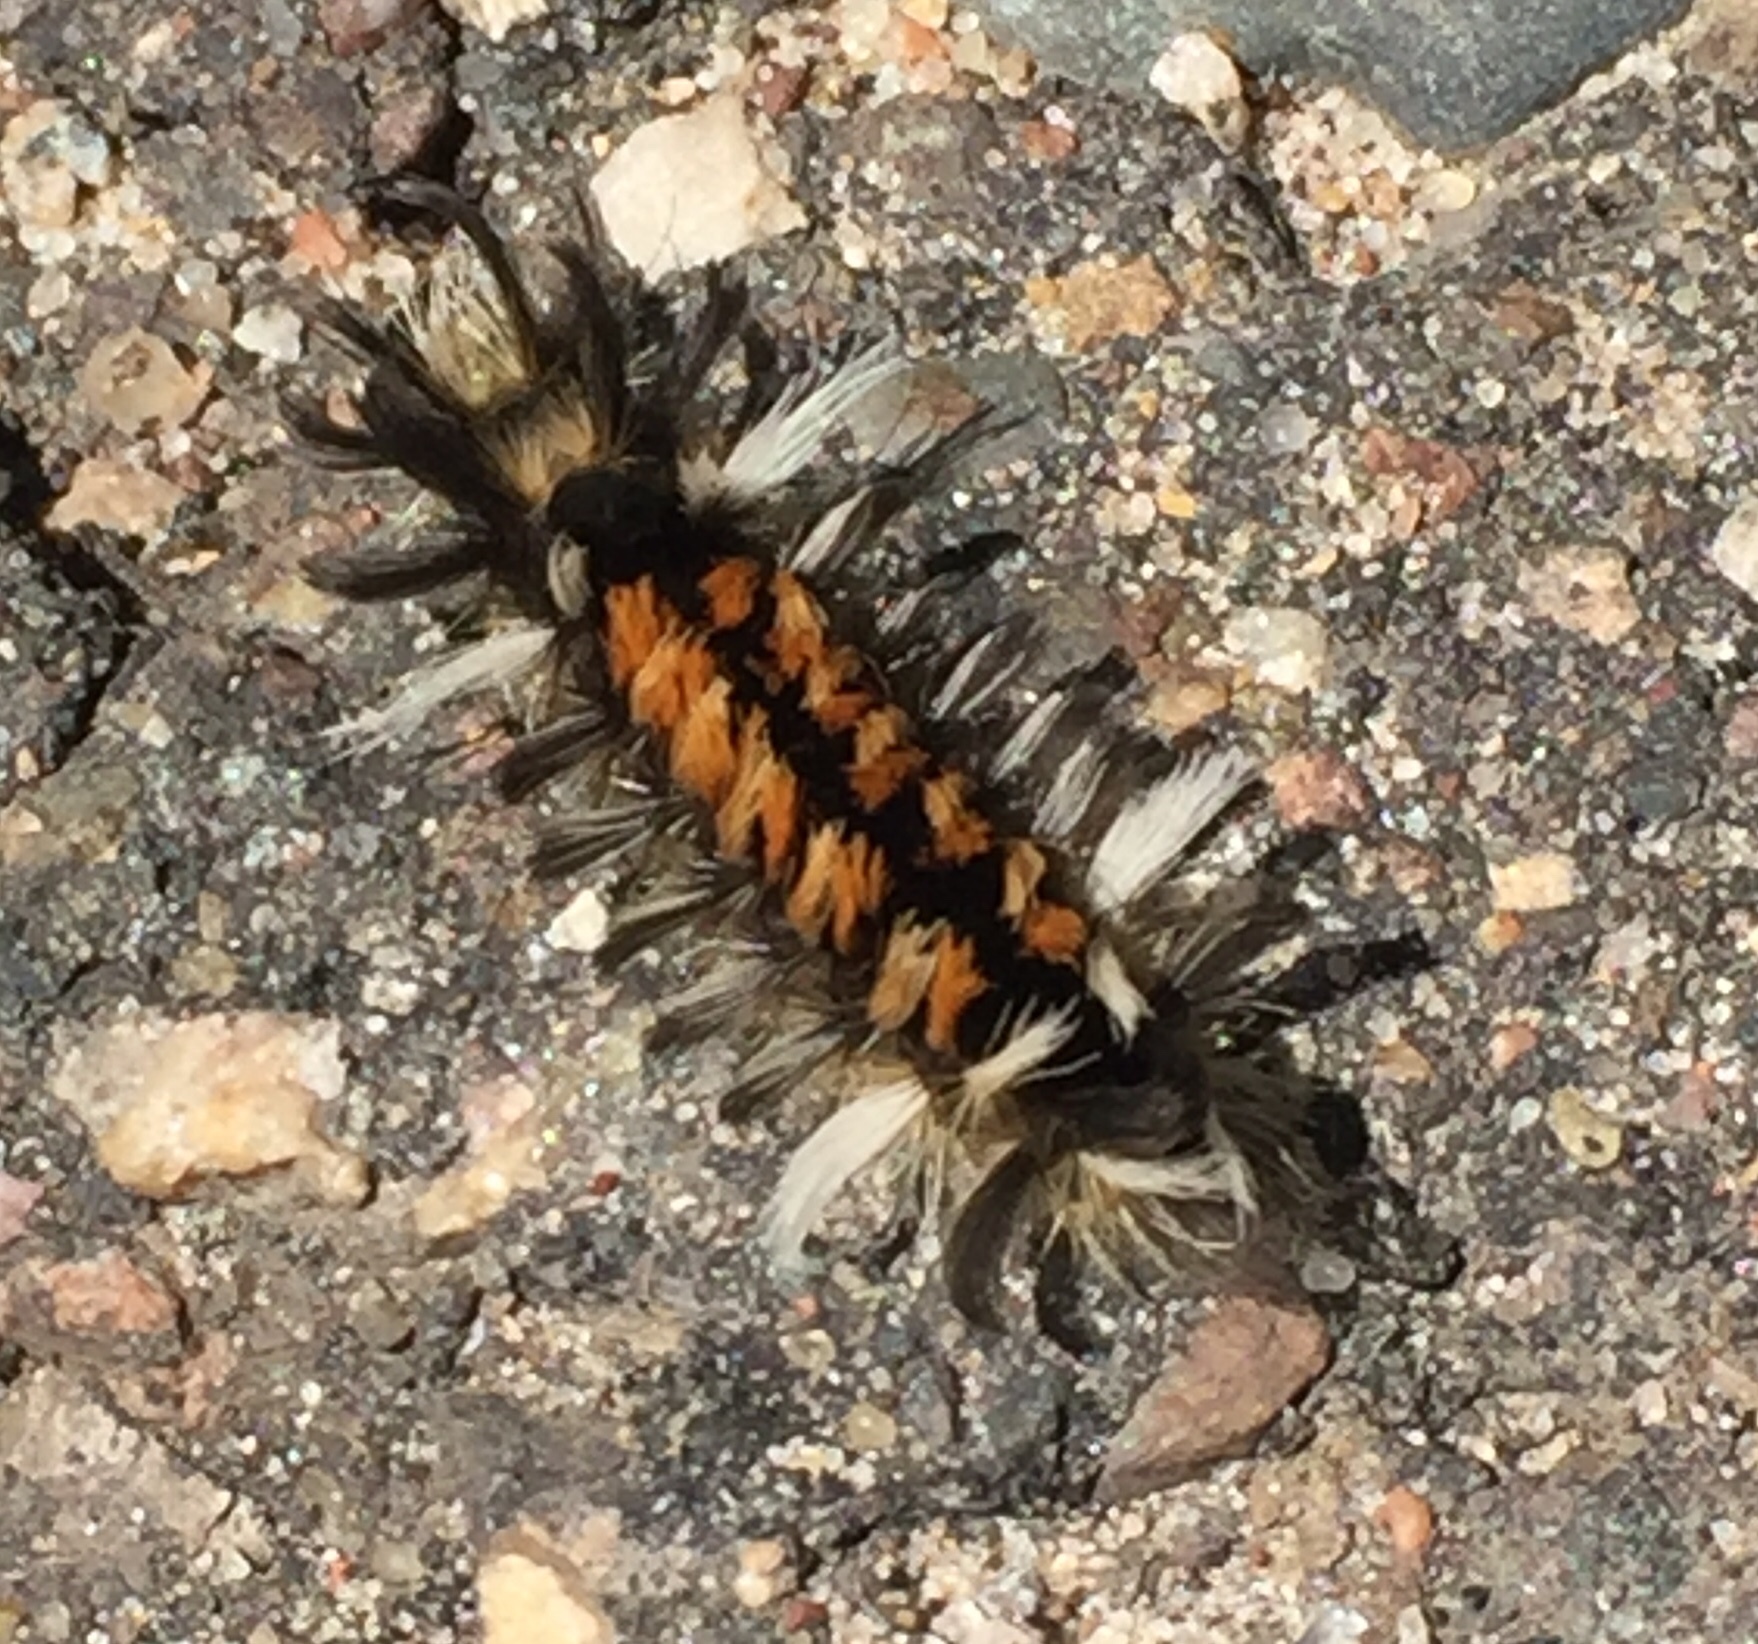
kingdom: Animalia
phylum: Arthropoda
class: Insecta
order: Lepidoptera
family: Erebidae
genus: Euchaetes
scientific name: Euchaetes egle
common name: Milkweed tussock moth
